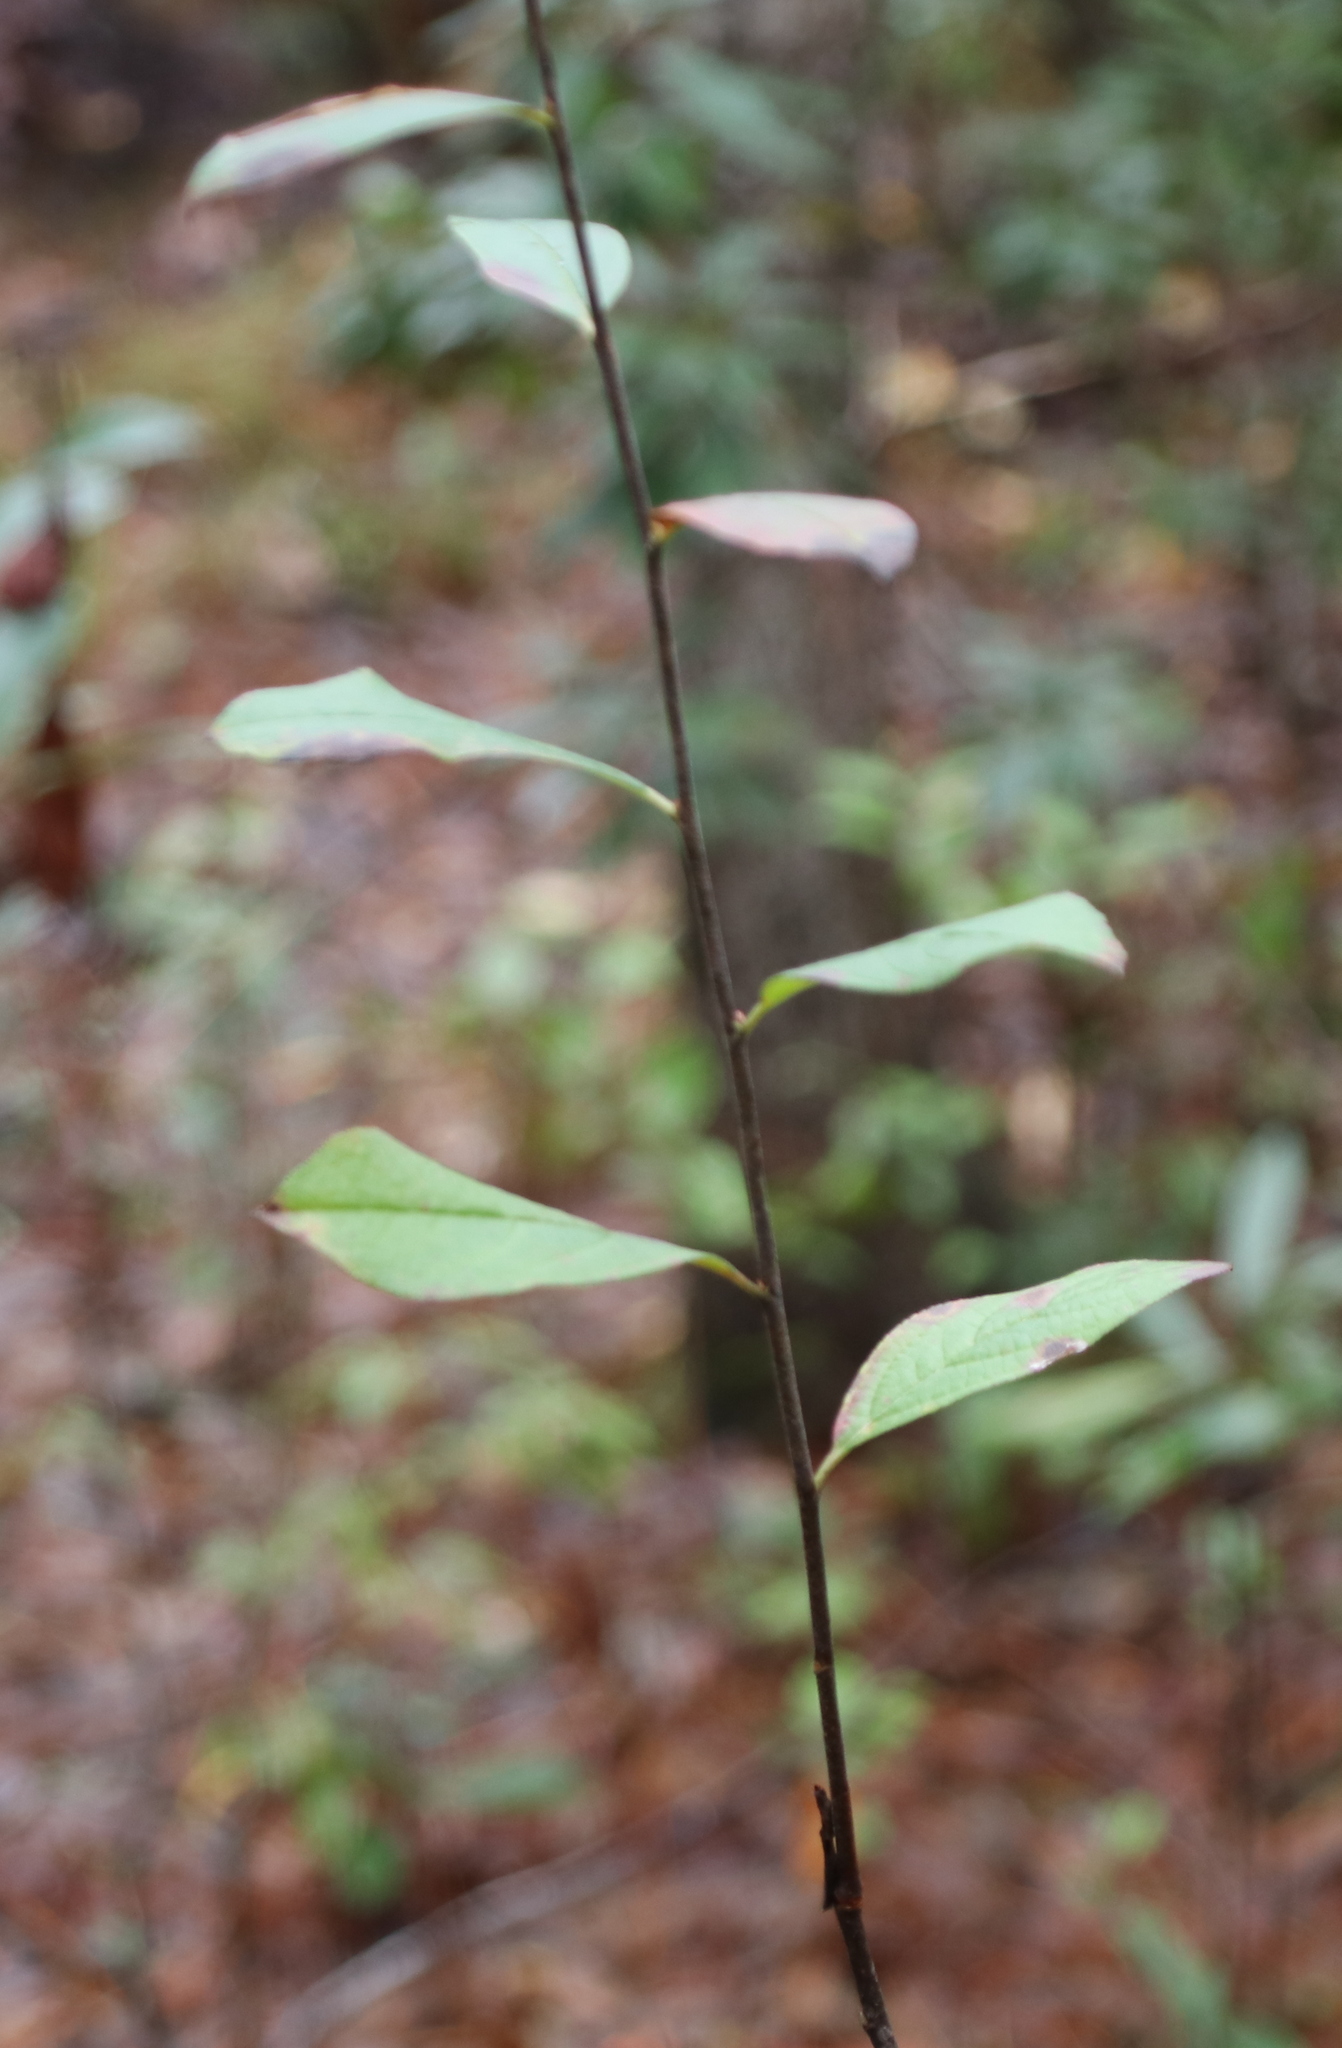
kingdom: Plantae
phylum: Tracheophyta
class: Magnoliopsida
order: Rosales
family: Rosaceae
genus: Aronia
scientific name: Aronia arbutifolia
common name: Red chokeberry
